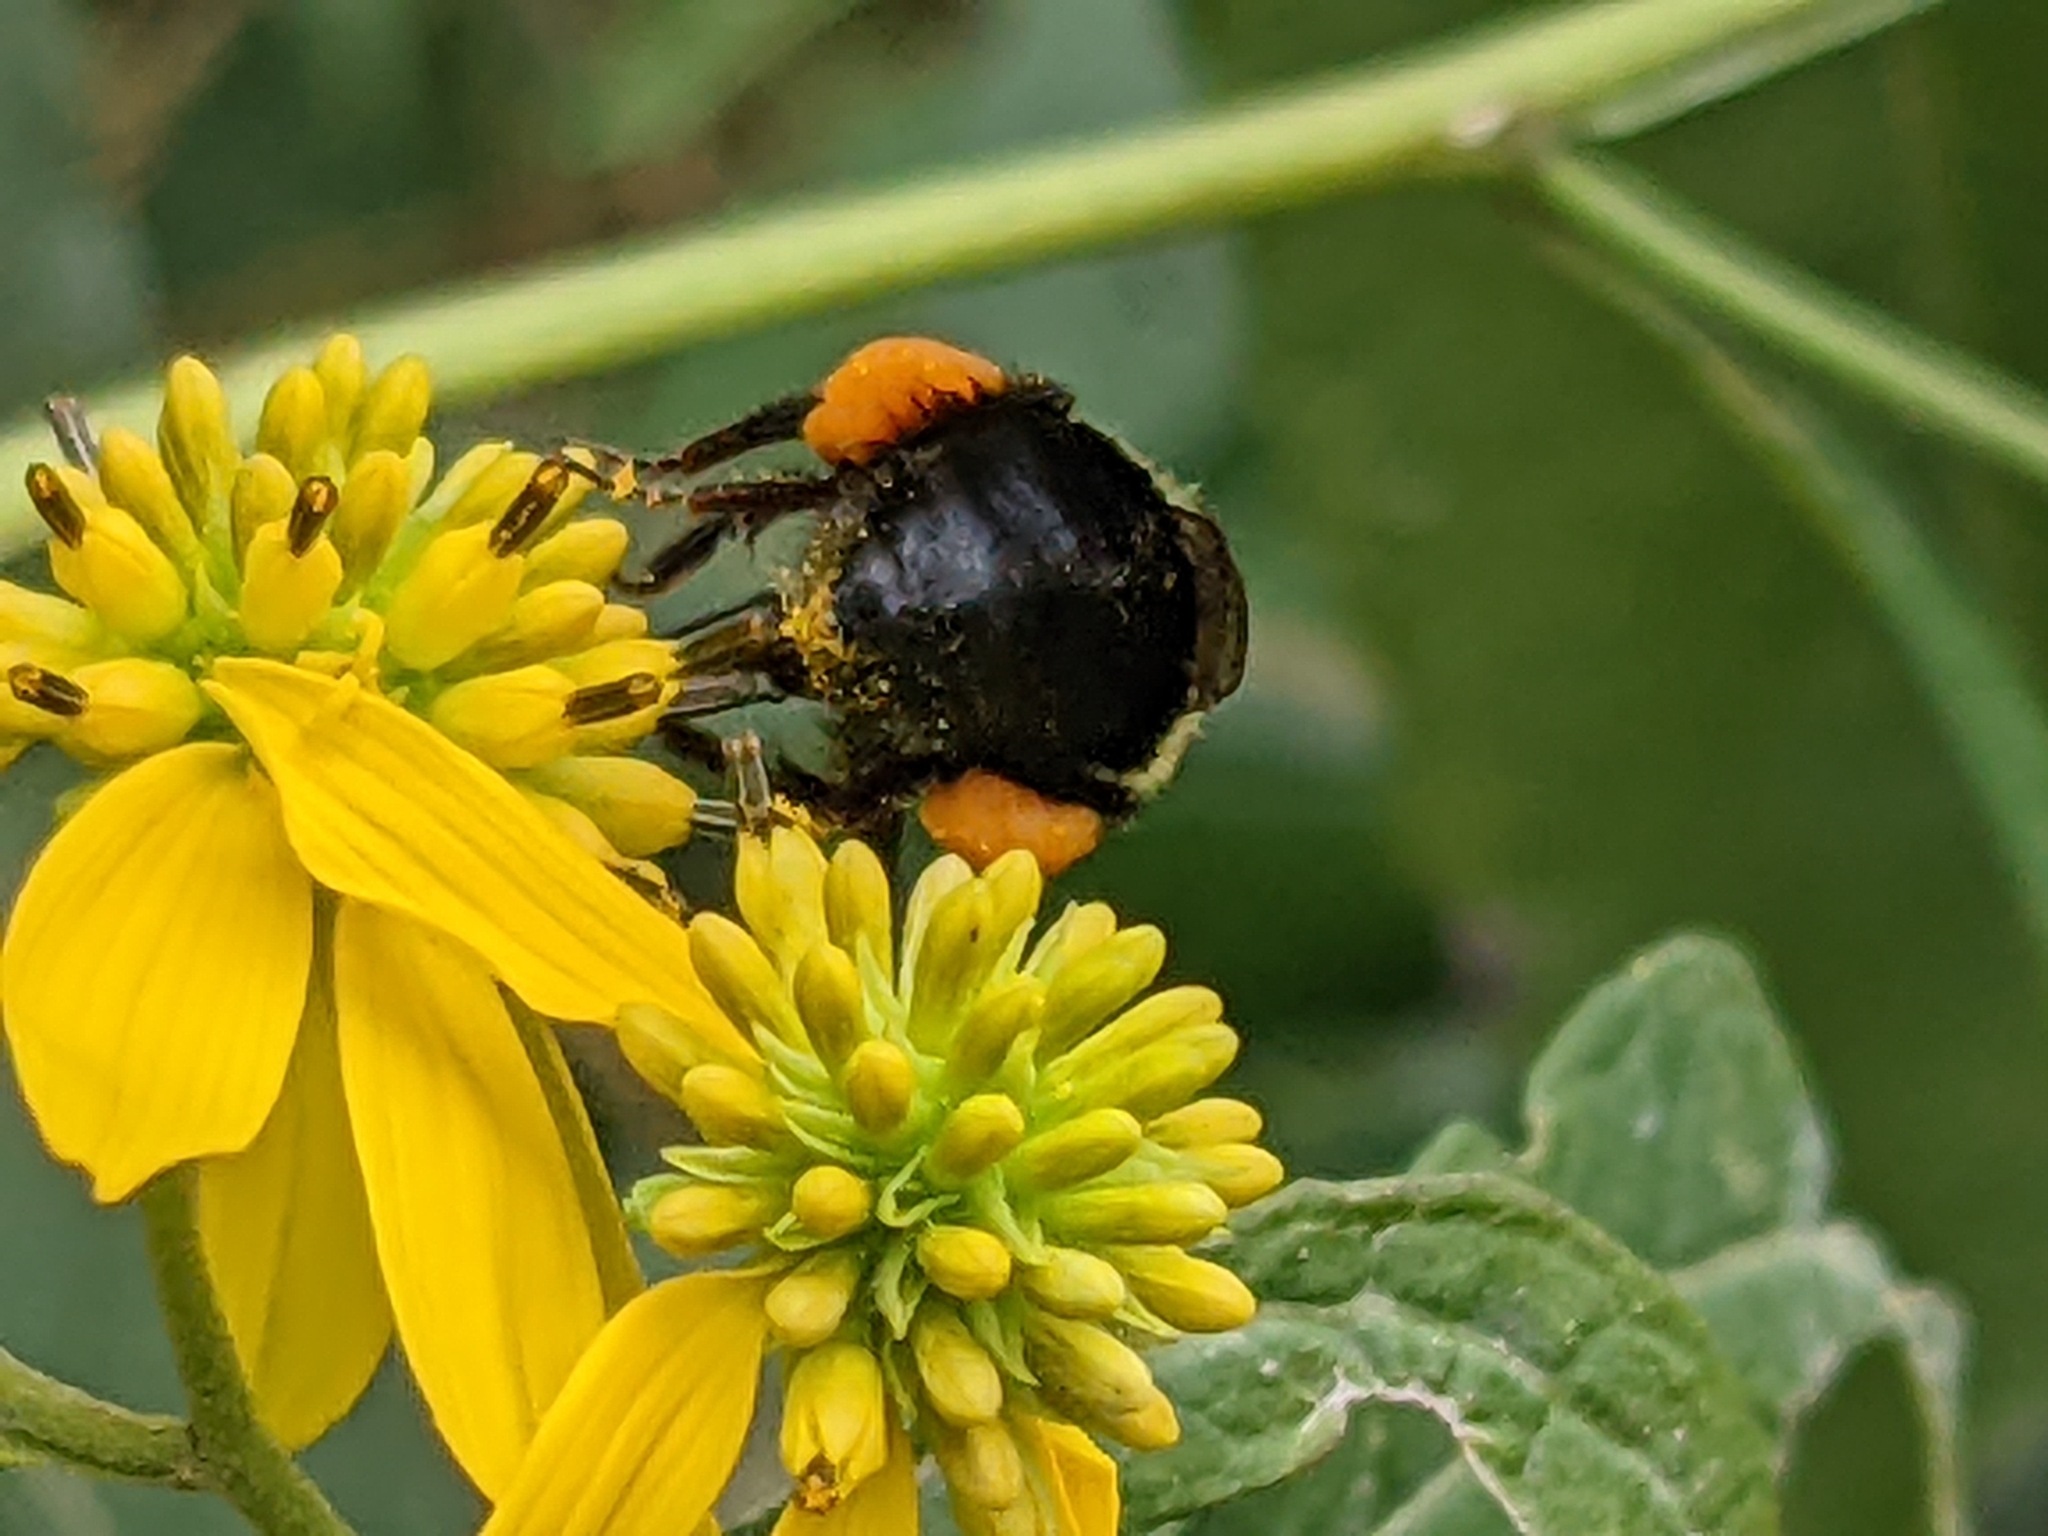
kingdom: Animalia
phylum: Arthropoda
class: Insecta
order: Hymenoptera
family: Apidae
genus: Bombus
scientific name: Bombus impatiens
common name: Common eastern bumble bee
